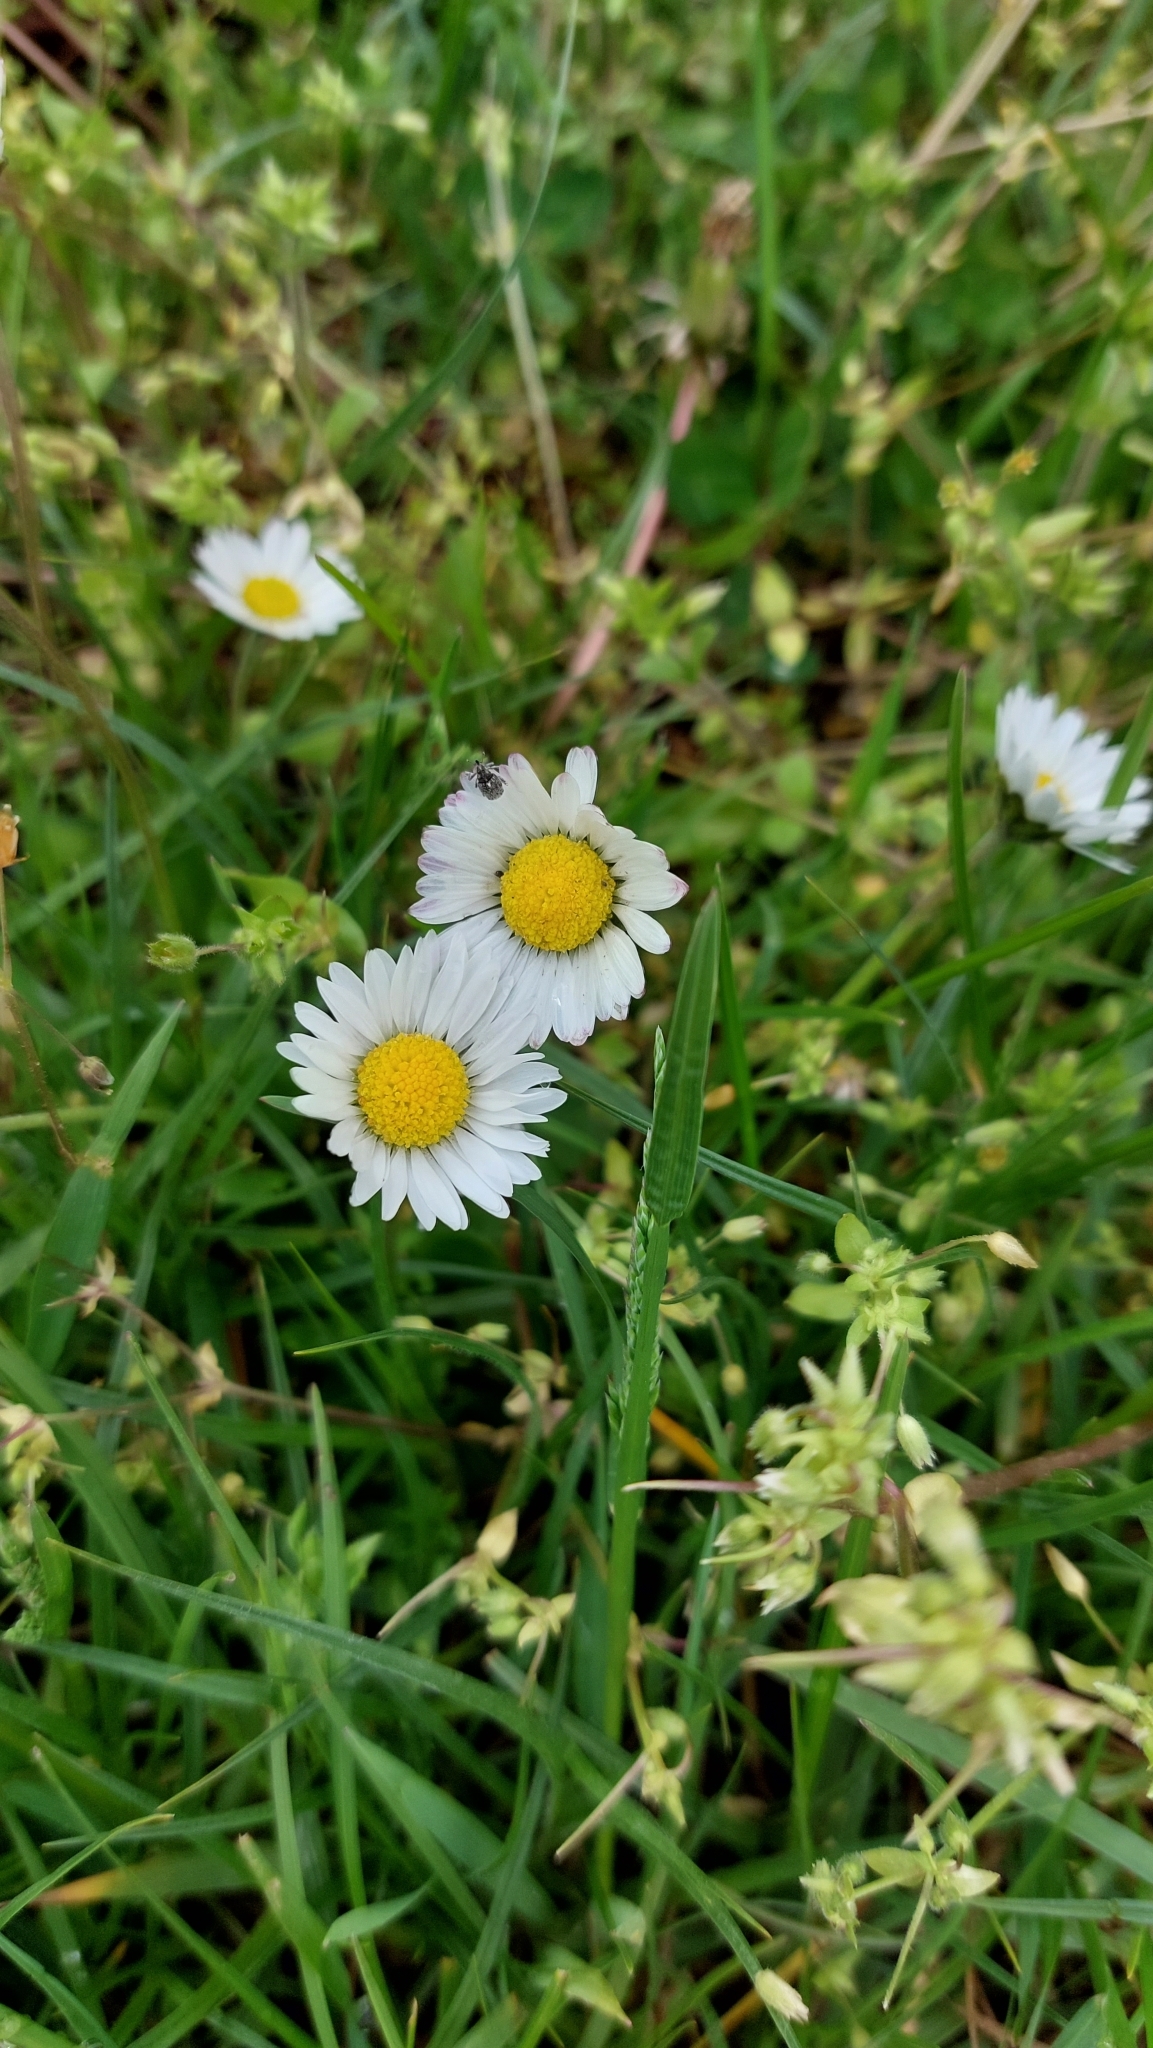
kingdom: Plantae
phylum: Tracheophyta
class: Magnoliopsida
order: Asterales
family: Asteraceae
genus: Bellis
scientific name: Bellis perennis
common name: Lawndaisy
